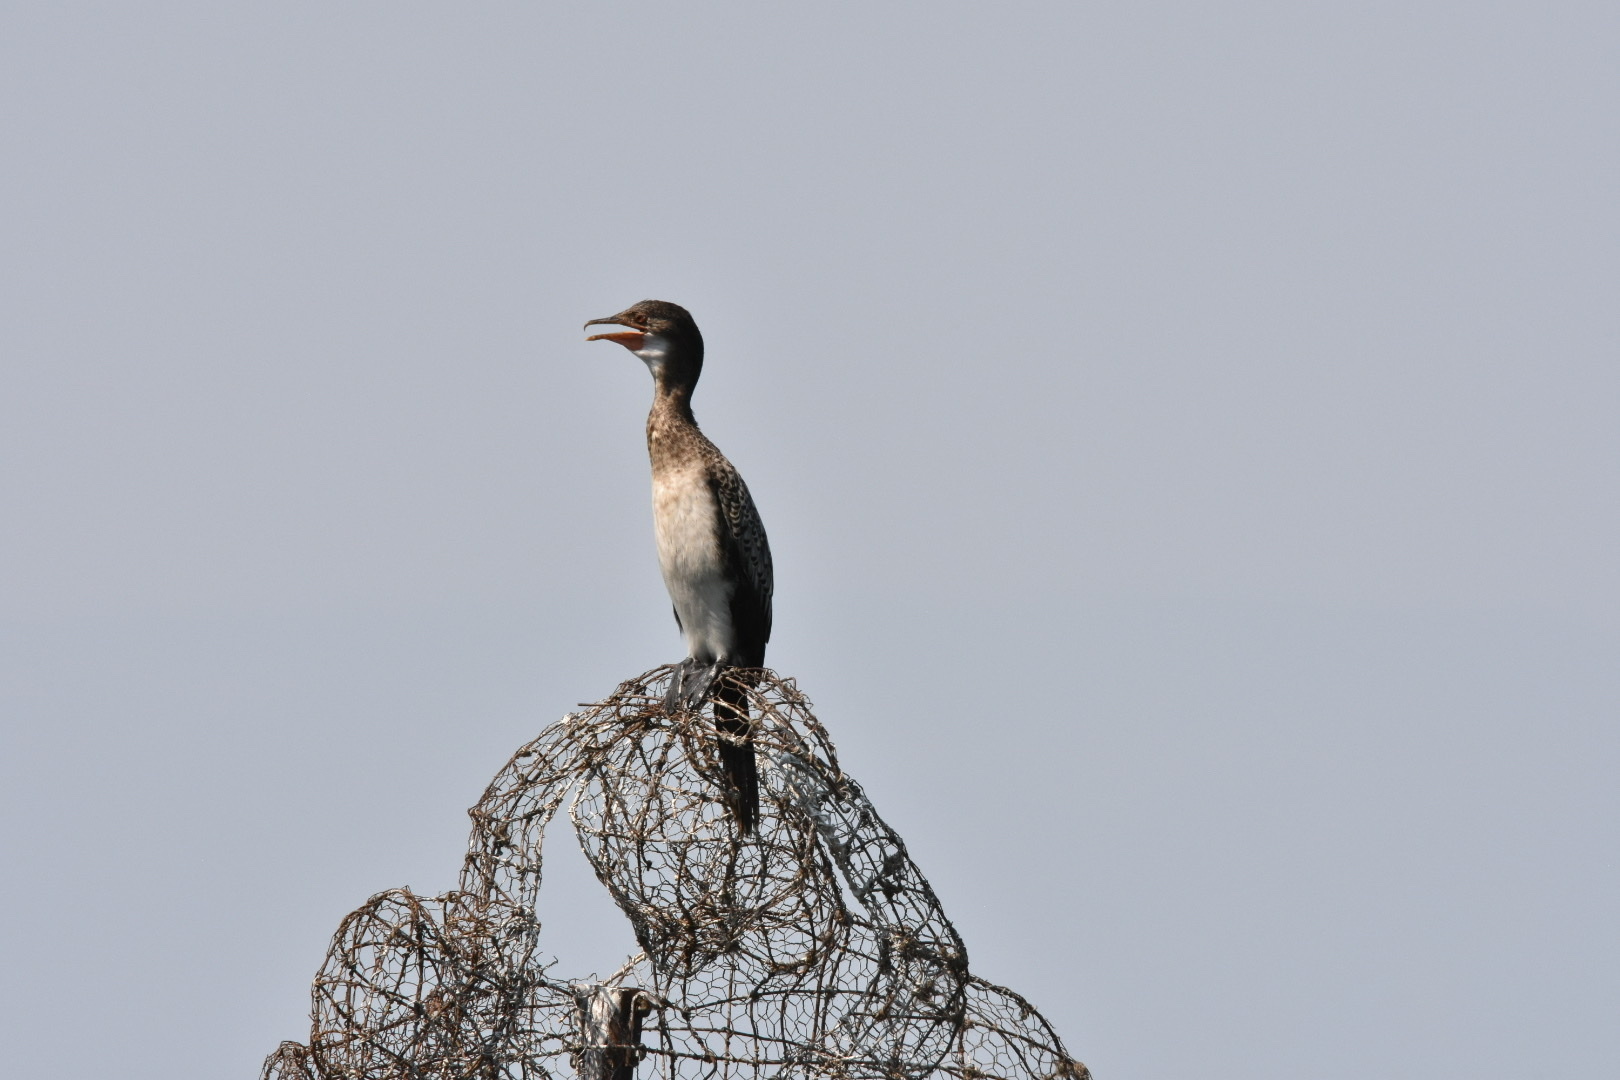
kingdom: Animalia
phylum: Chordata
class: Aves
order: Suliformes
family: Phalacrocoracidae
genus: Microcarbo
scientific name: Microcarbo africanus
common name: Long-tailed cormorant
